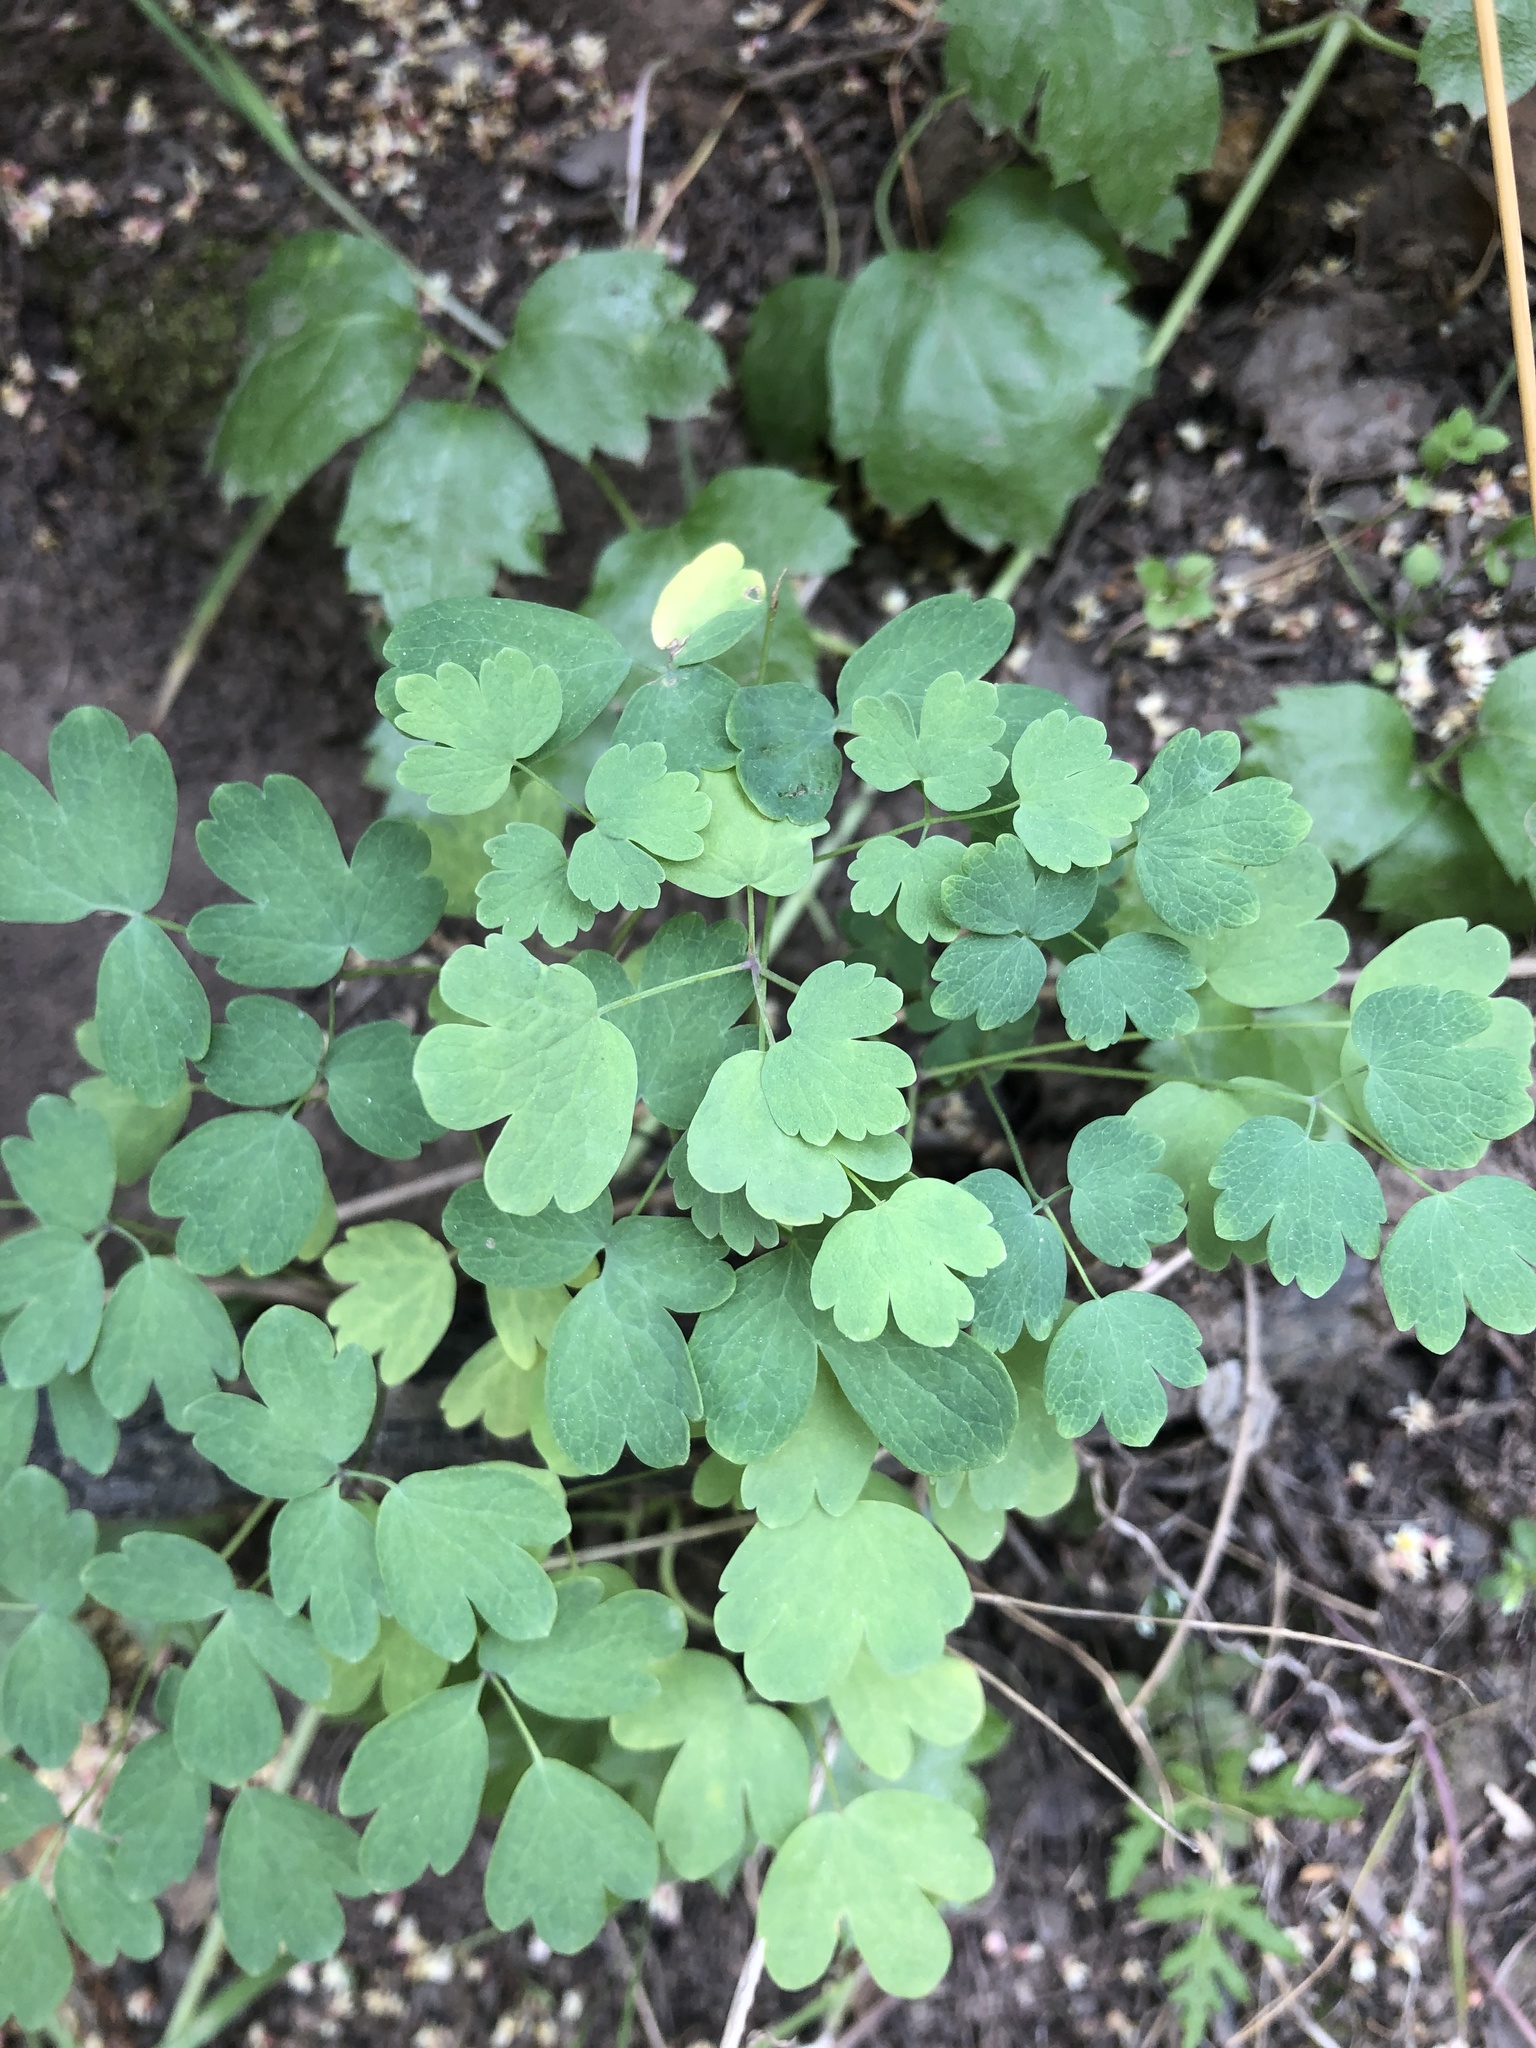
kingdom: Plantae
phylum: Tracheophyta
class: Magnoliopsida
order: Ranunculales
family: Ranunculaceae
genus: Thalictrum
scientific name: Thalictrum fendleri
